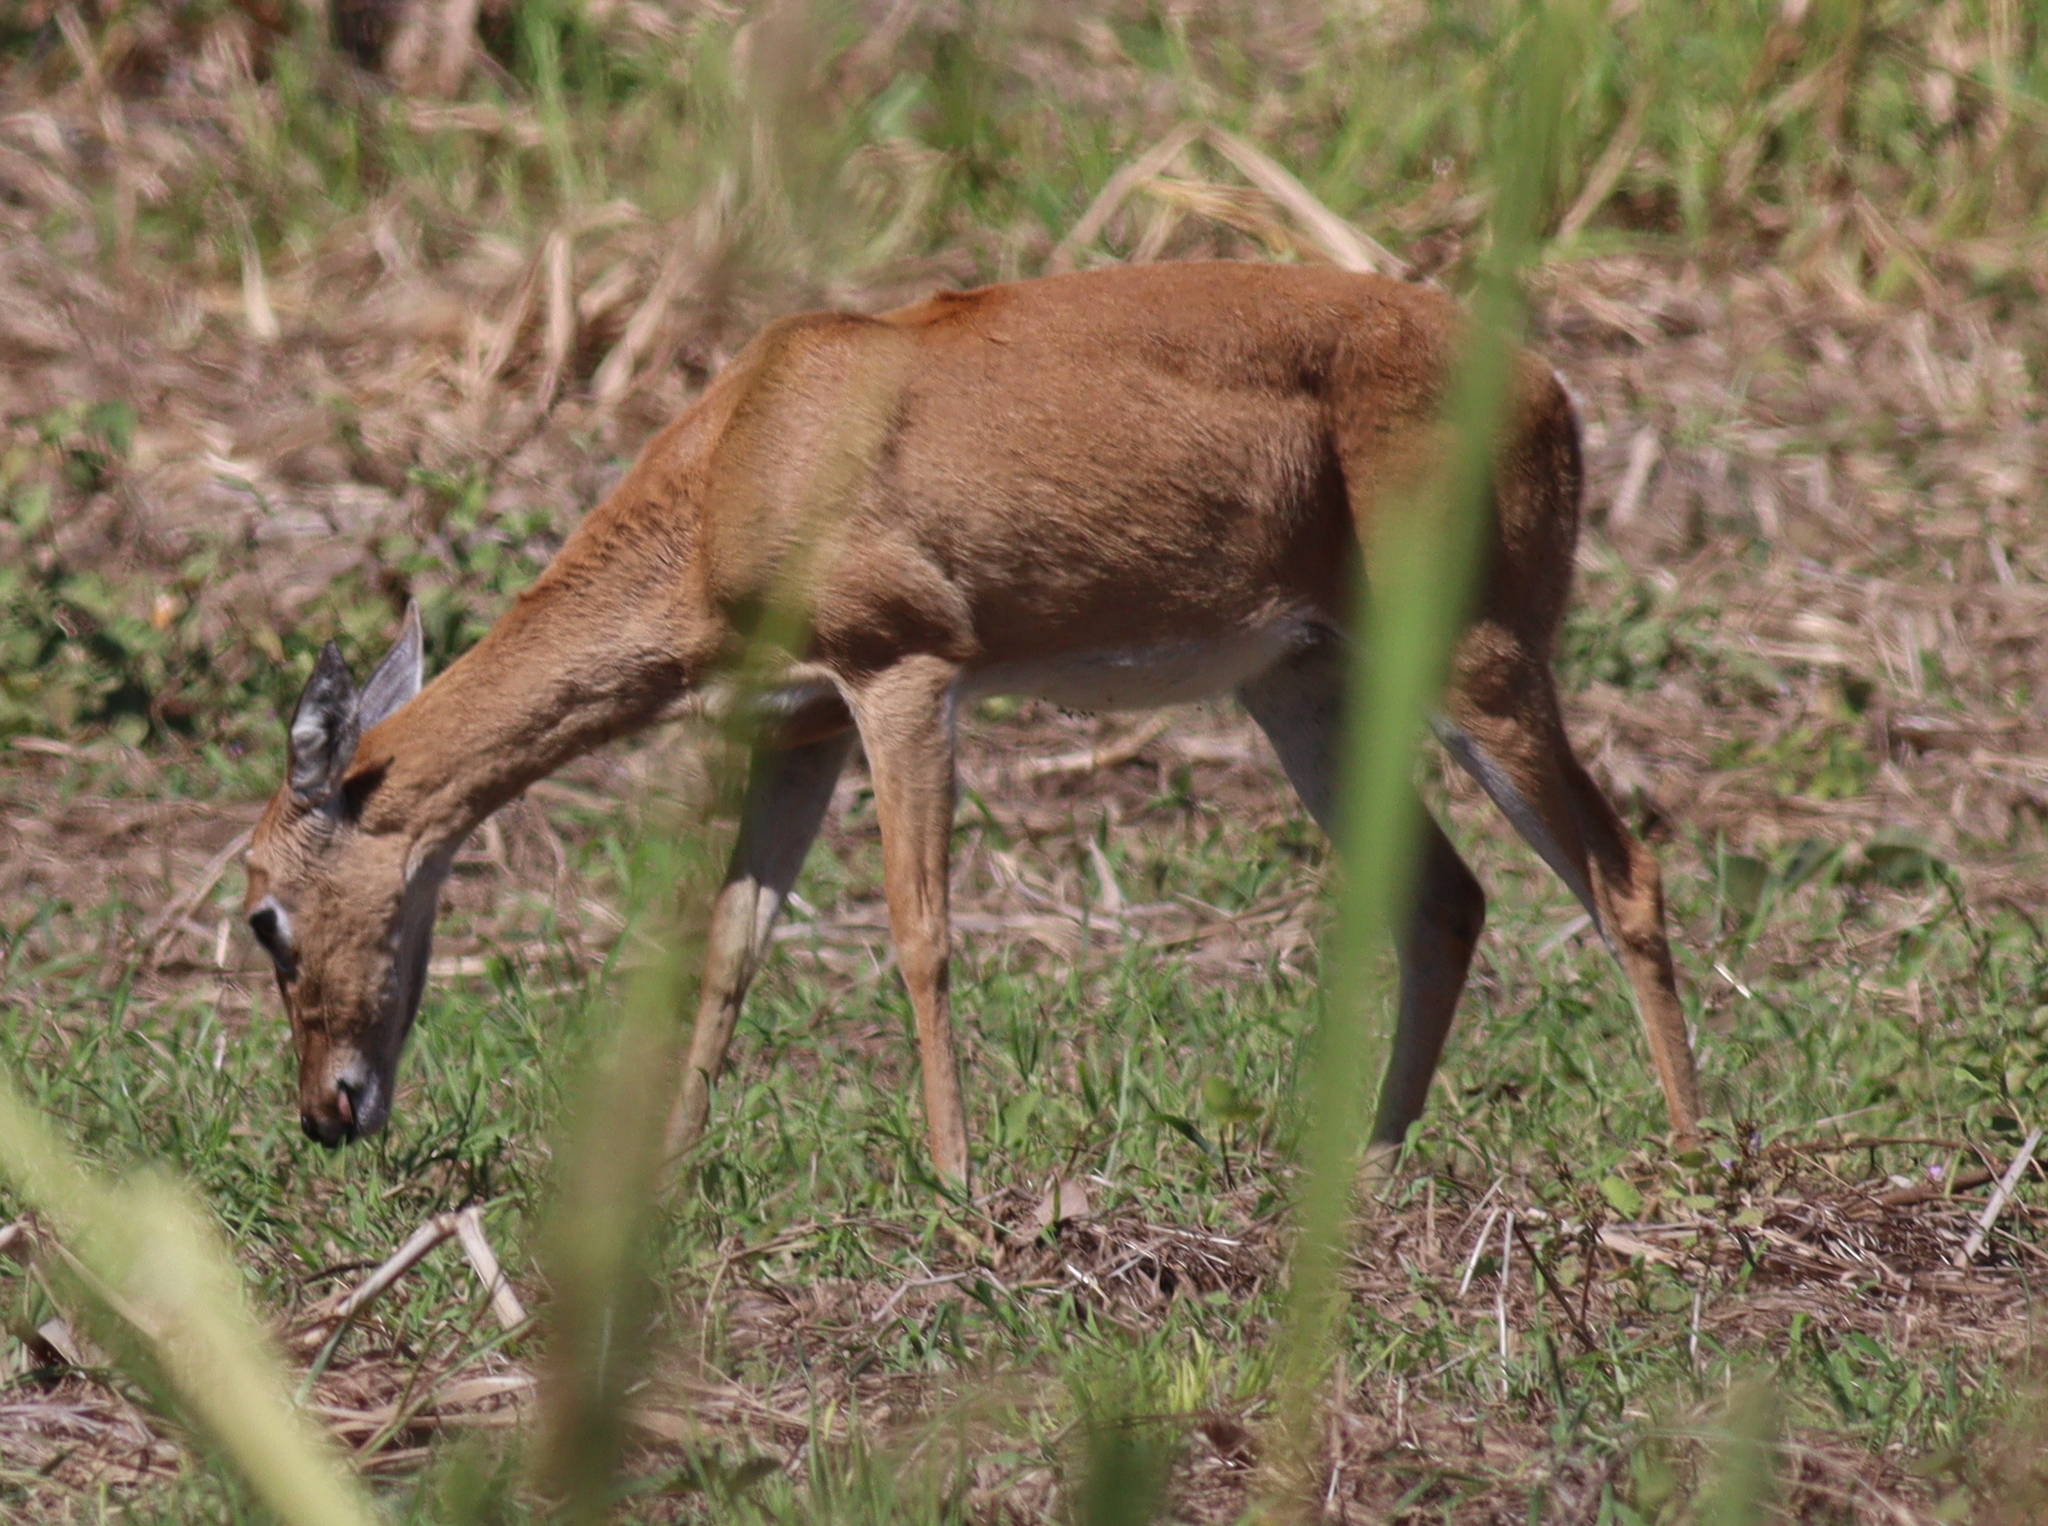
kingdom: Animalia
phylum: Chordata
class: Mammalia
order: Artiodactyla
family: Cervidae
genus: Ozotoceros
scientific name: Ozotoceros bezoarticus
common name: Pampas deer
